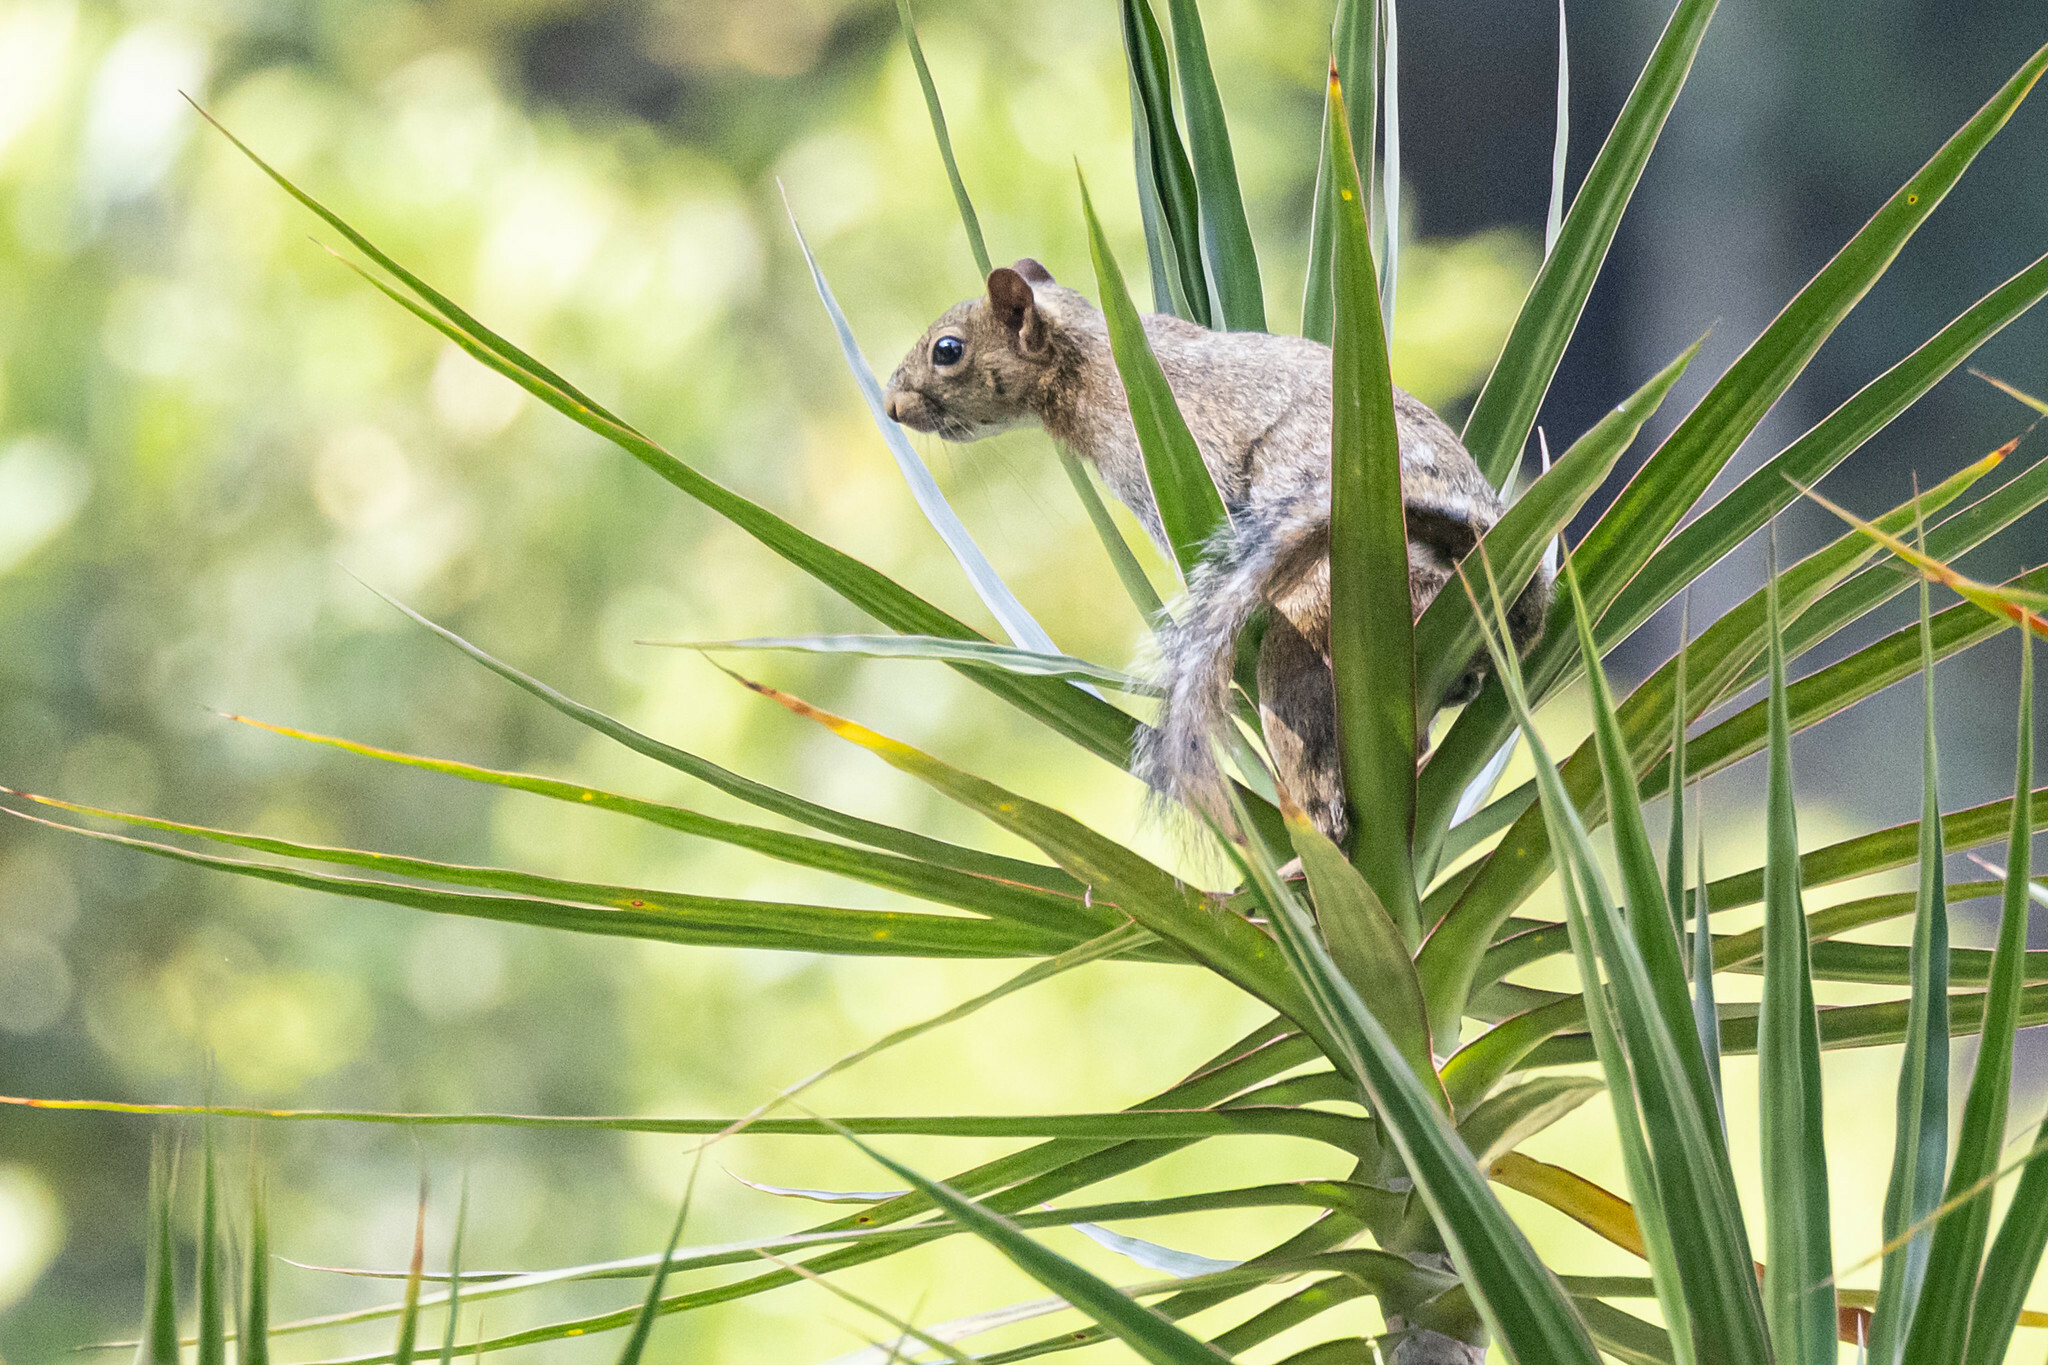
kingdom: Animalia
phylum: Chordata
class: Mammalia
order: Rodentia
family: Sciuridae
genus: Sciurus
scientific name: Sciurus deppei
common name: Deppe's squirrel
